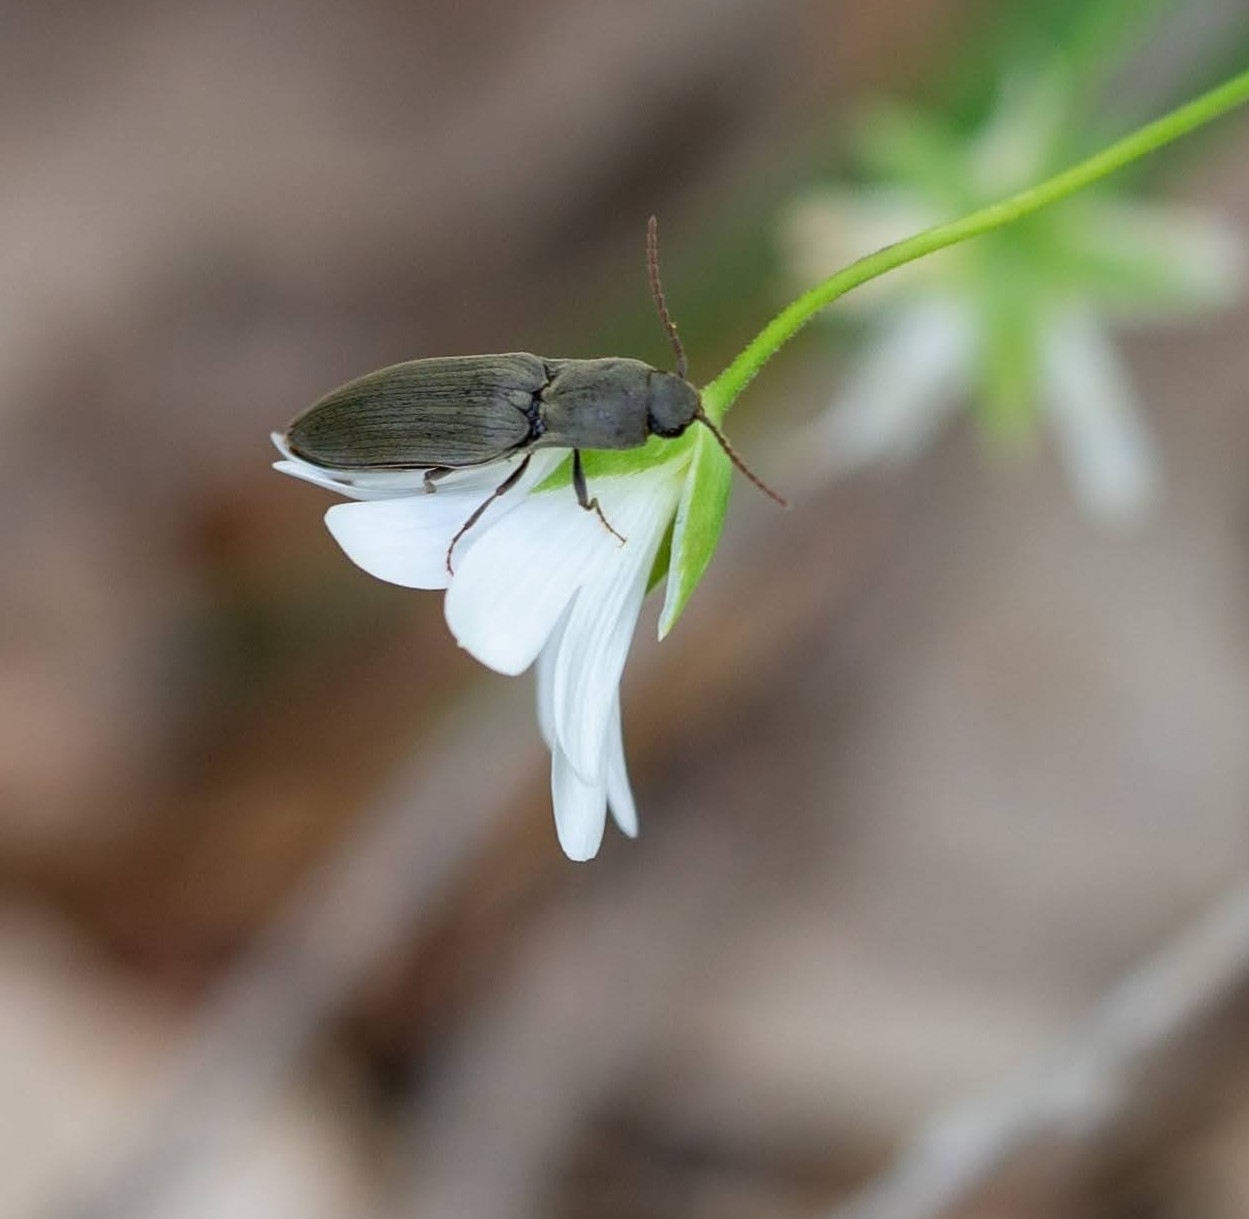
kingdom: Animalia
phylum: Arthropoda
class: Insecta
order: Coleoptera
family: Elateridae
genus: Agriotes
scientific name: Agriotes pilosellus
